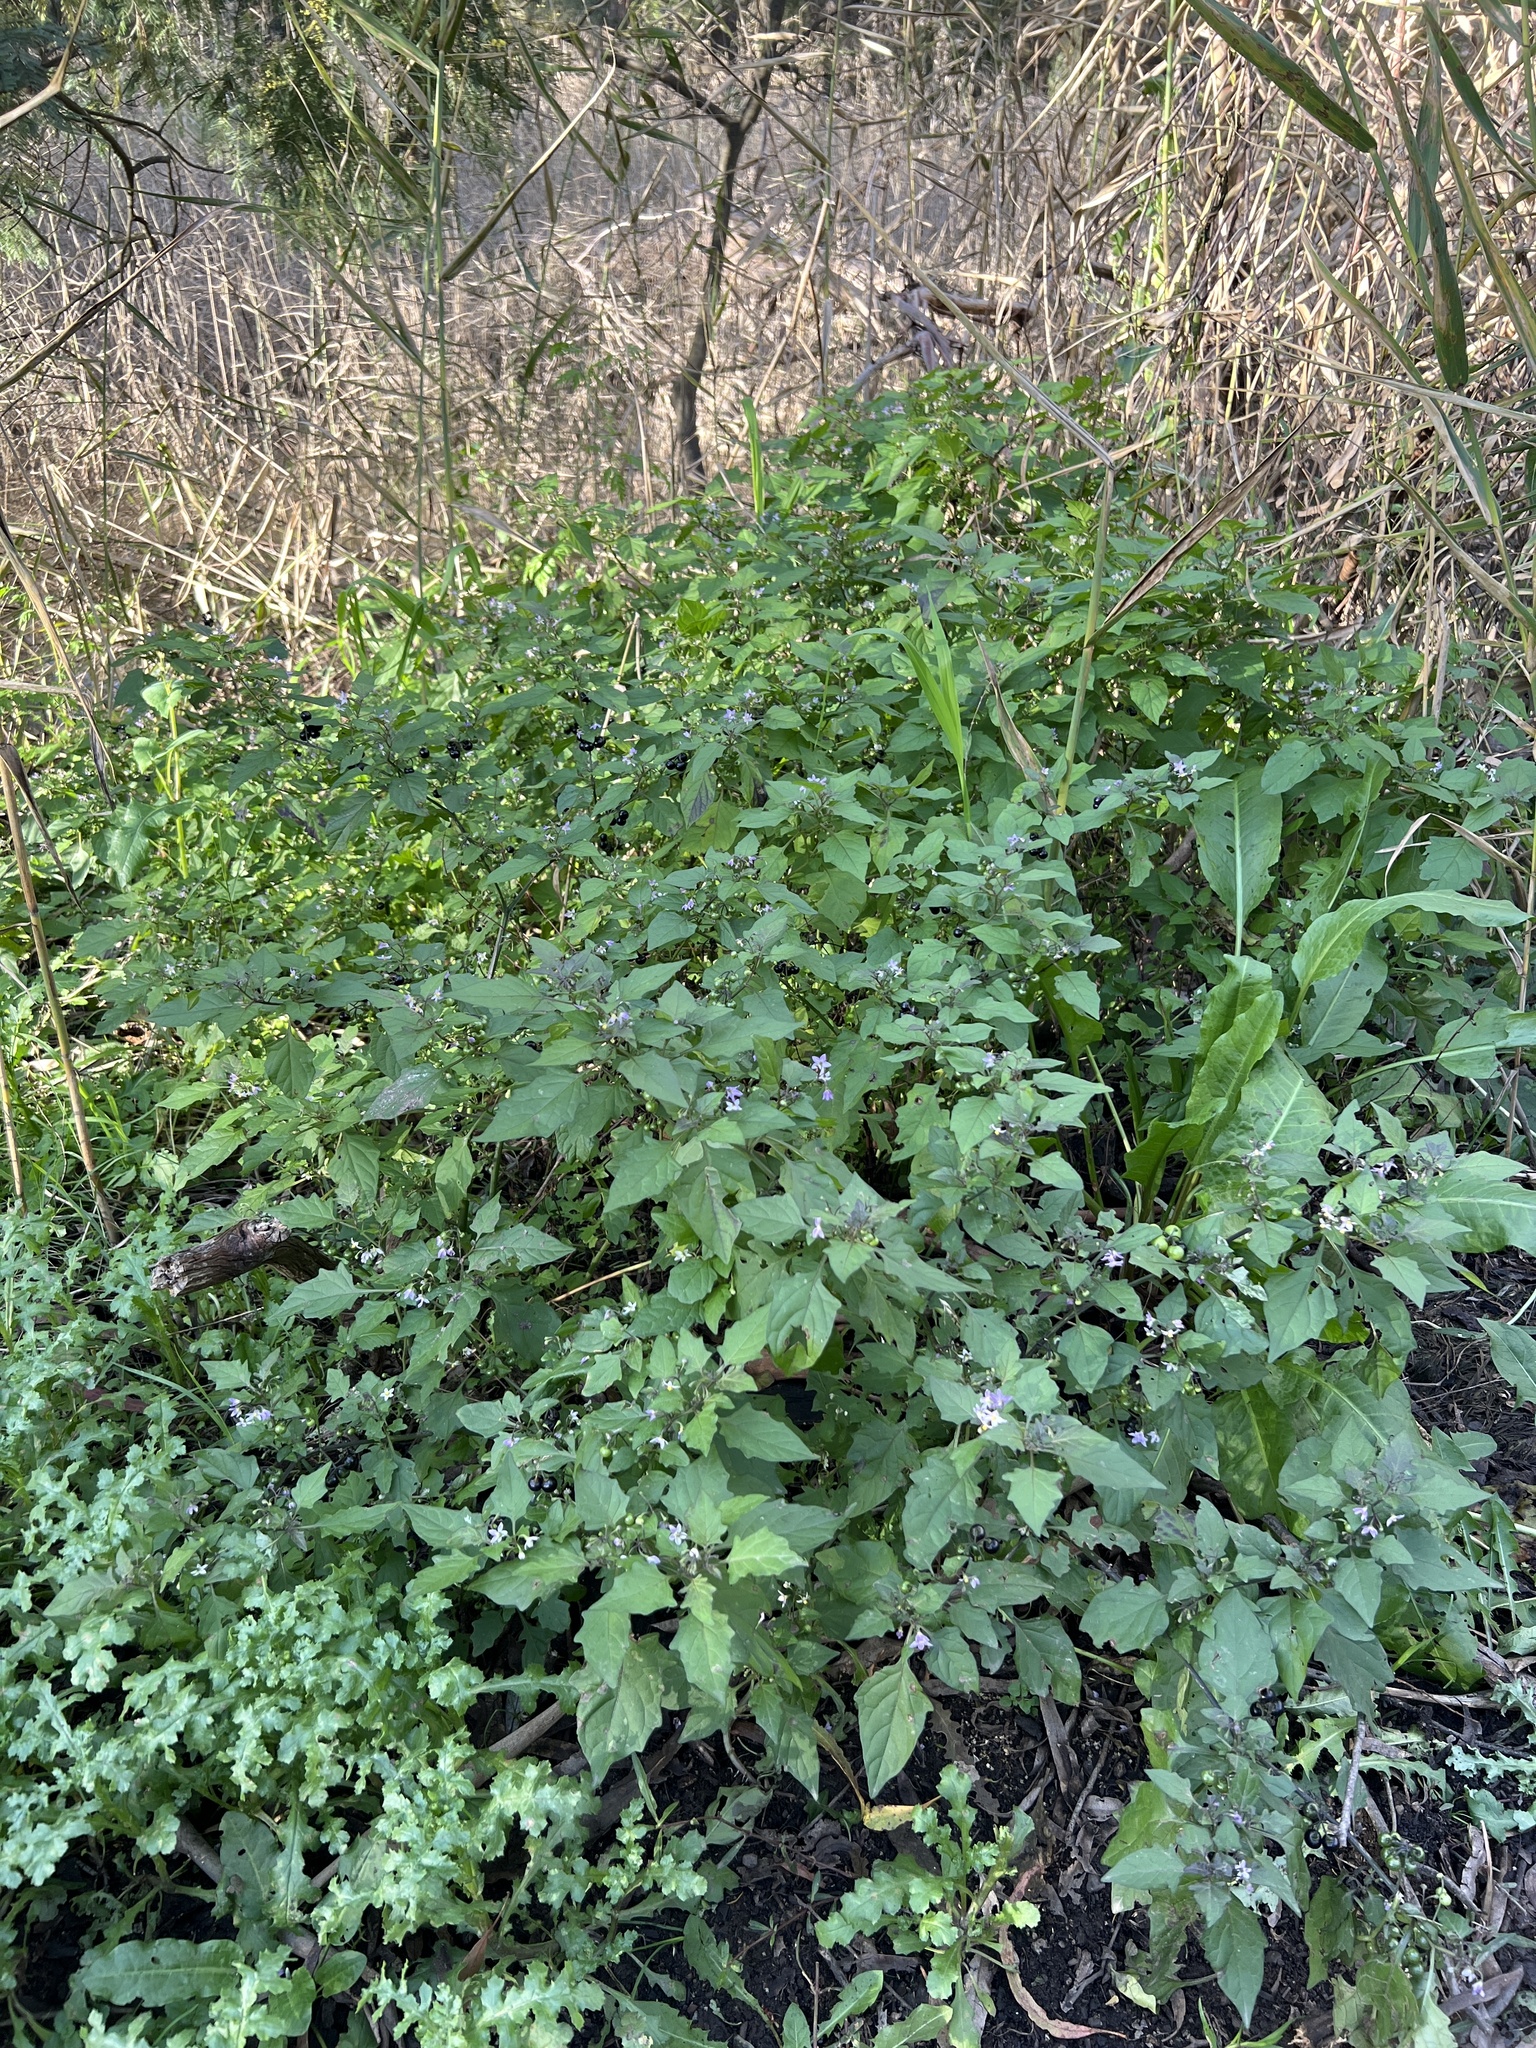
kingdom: Plantae
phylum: Tracheophyta
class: Magnoliopsida
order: Solanales
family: Solanaceae
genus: Solanum
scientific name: Solanum americanum
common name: American black nightshade
